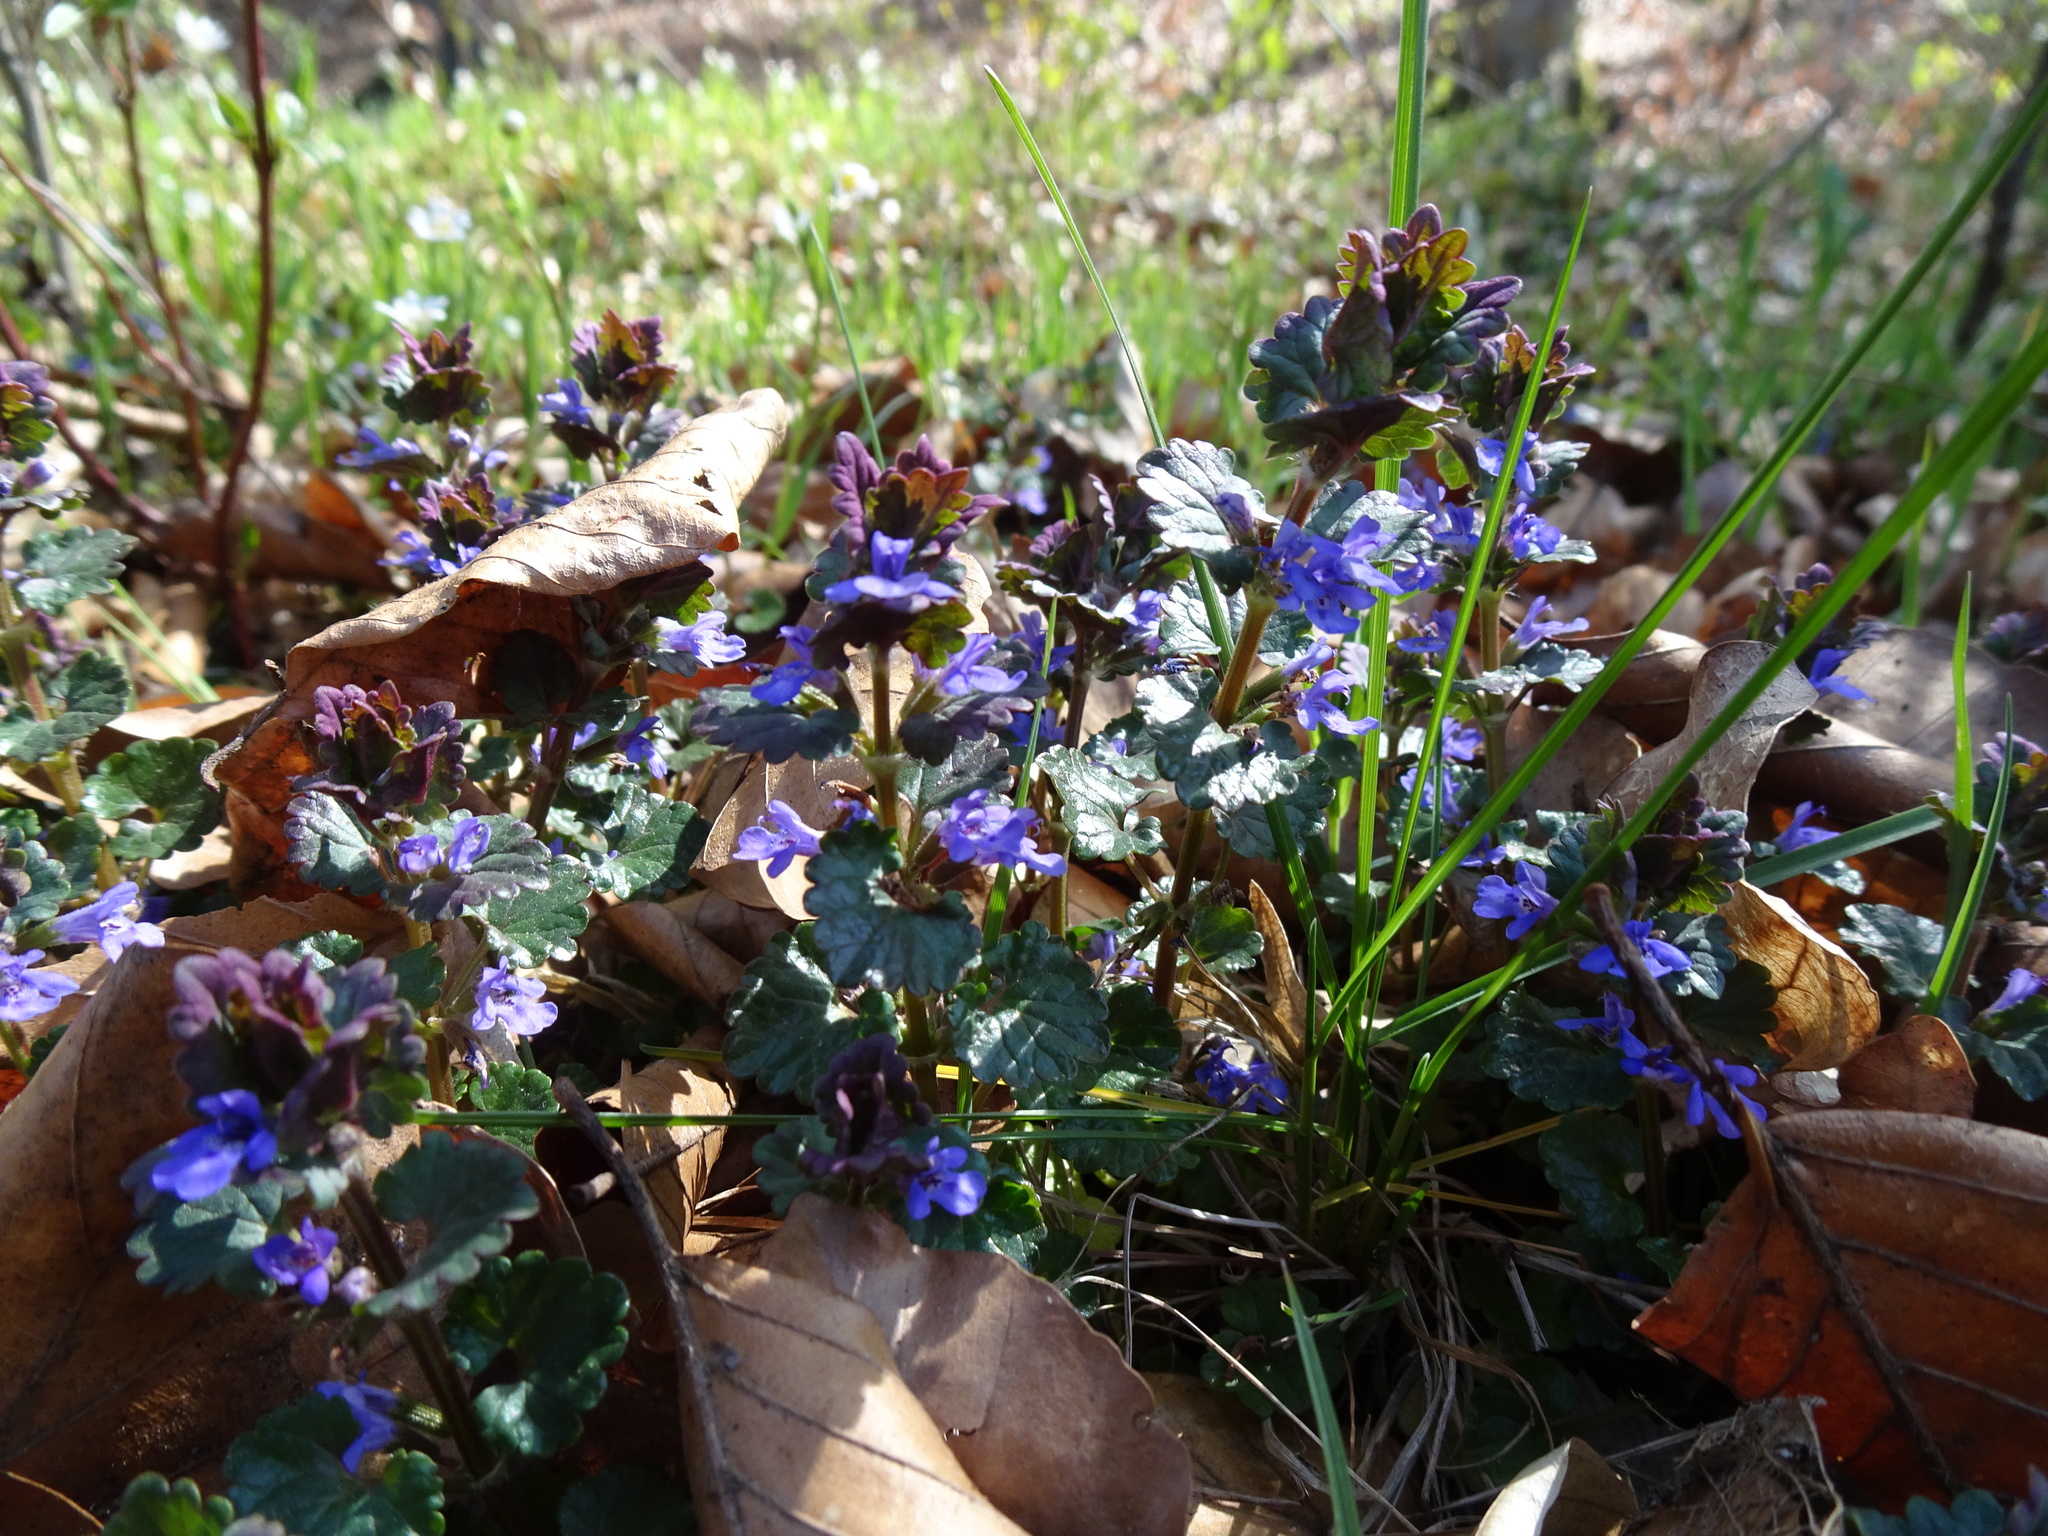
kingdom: Plantae
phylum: Tracheophyta
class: Magnoliopsida
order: Lamiales
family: Lamiaceae
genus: Glechoma
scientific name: Glechoma hederacea
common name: Ground ivy
